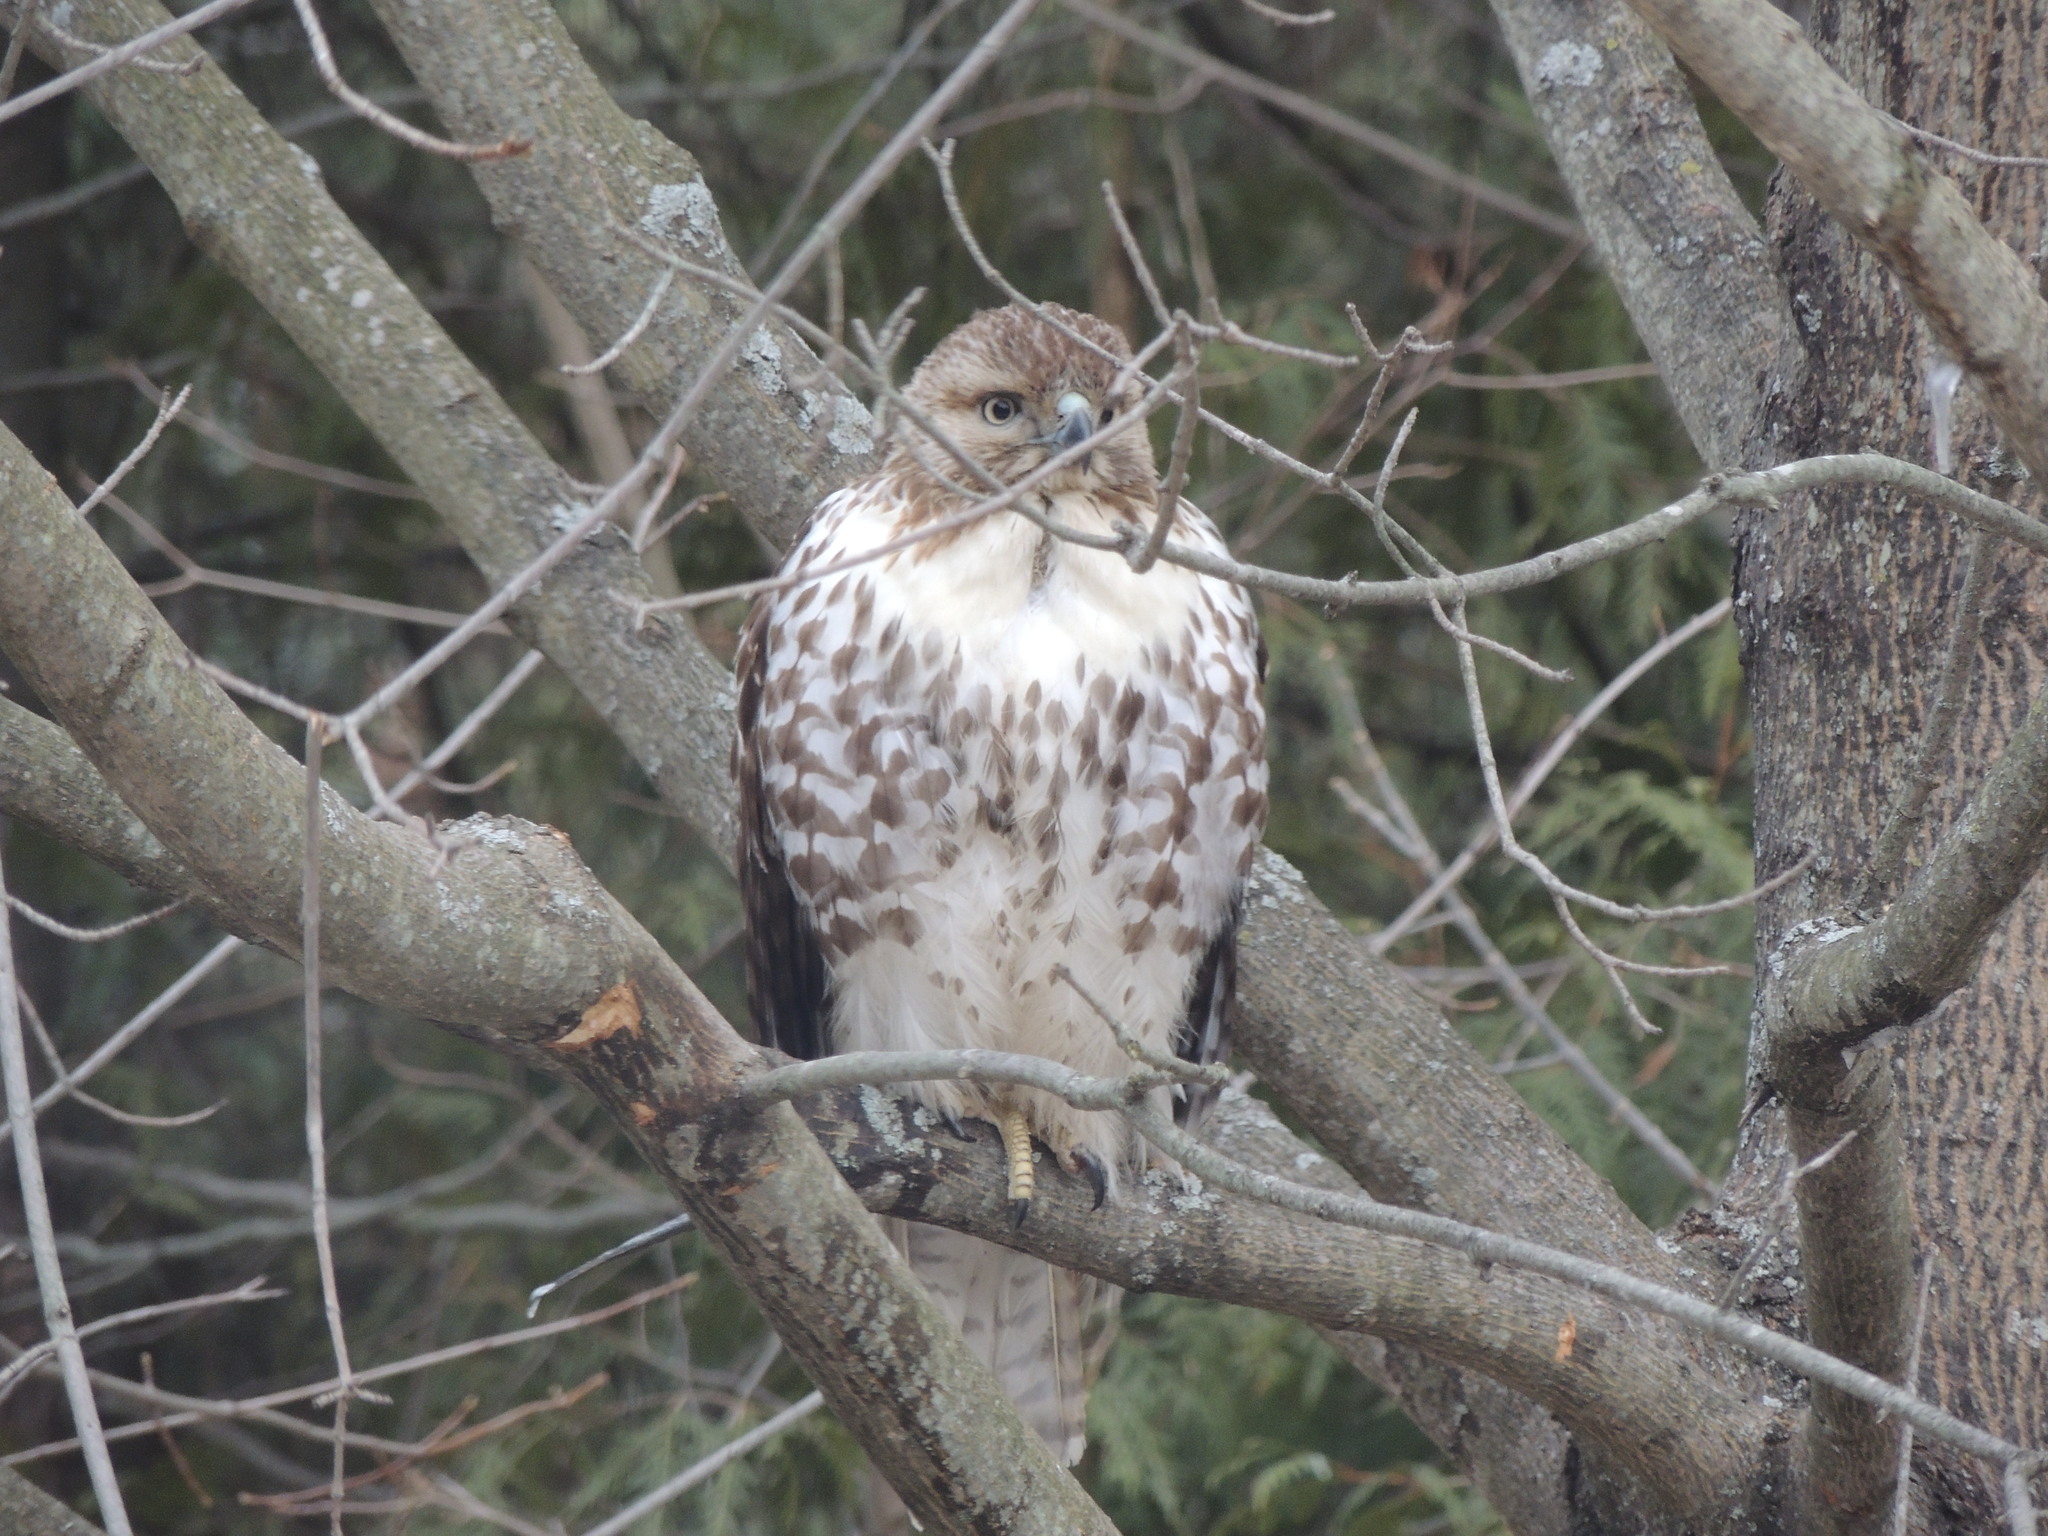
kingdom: Animalia
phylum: Chordata
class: Aves
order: Accipitriformes
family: Accipitridae
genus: Buteo
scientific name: Buteo jamaicensis
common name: Red-tailed hawk
